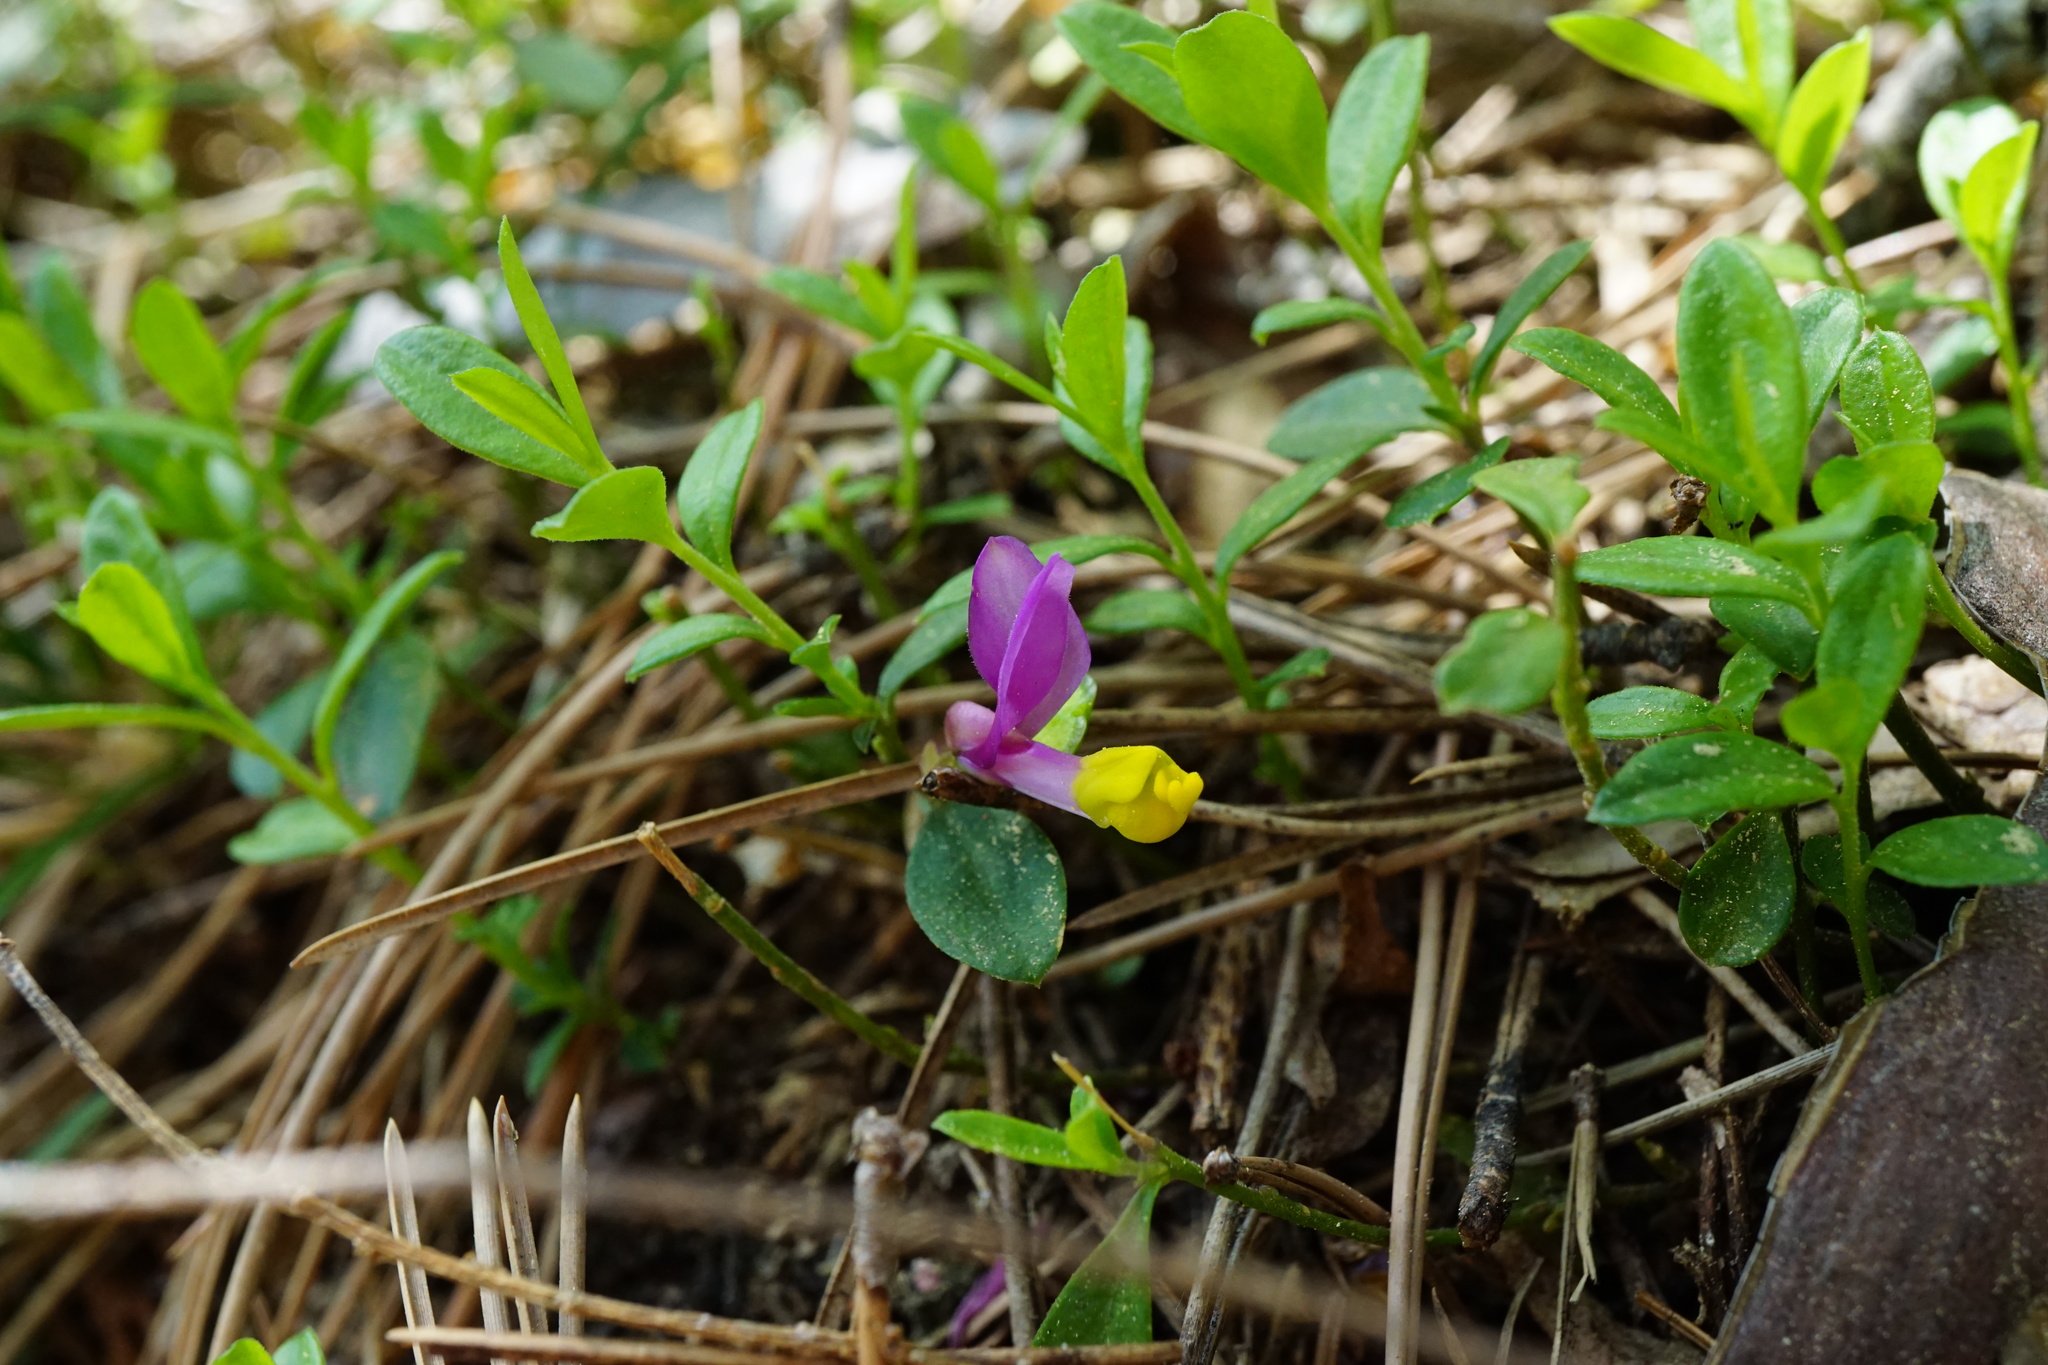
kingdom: Plantae
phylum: Tracheophyta
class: Magnoliopsida
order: Fabales
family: Polygalaceae
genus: Polygaloides
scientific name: Polygaloides chamaebuxus
